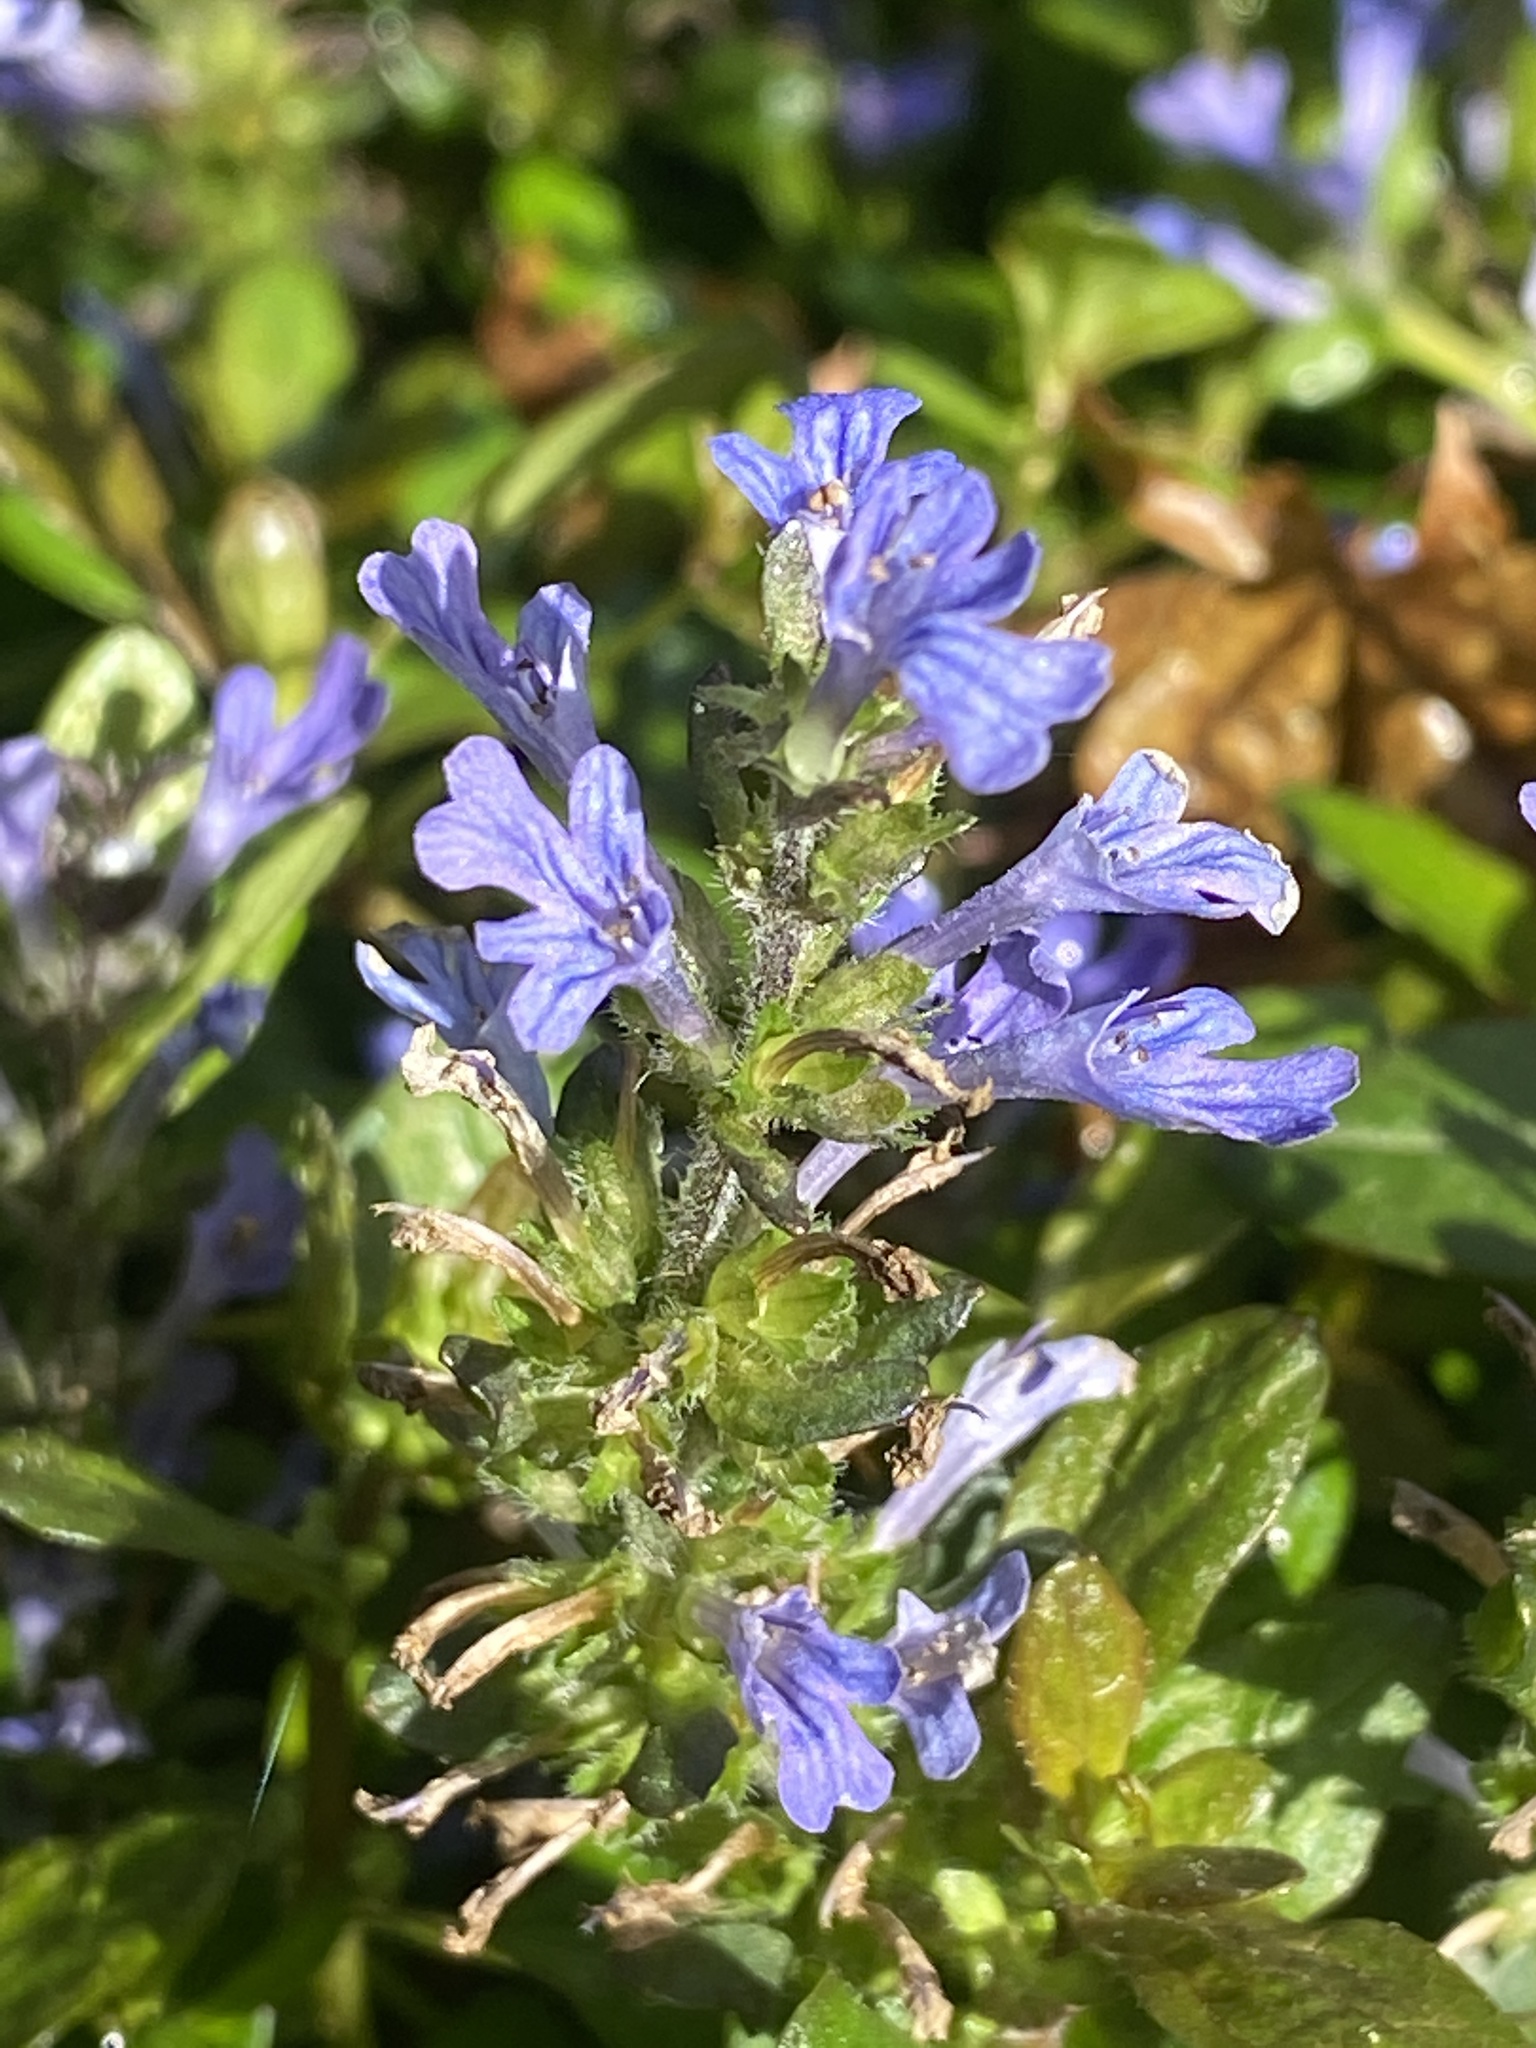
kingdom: Plantae
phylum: Tracheophyta
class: Magnoliopsida
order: Lamiales
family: Lamiaceae
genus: Ajuga
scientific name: Ajuga reptans
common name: Bugle
